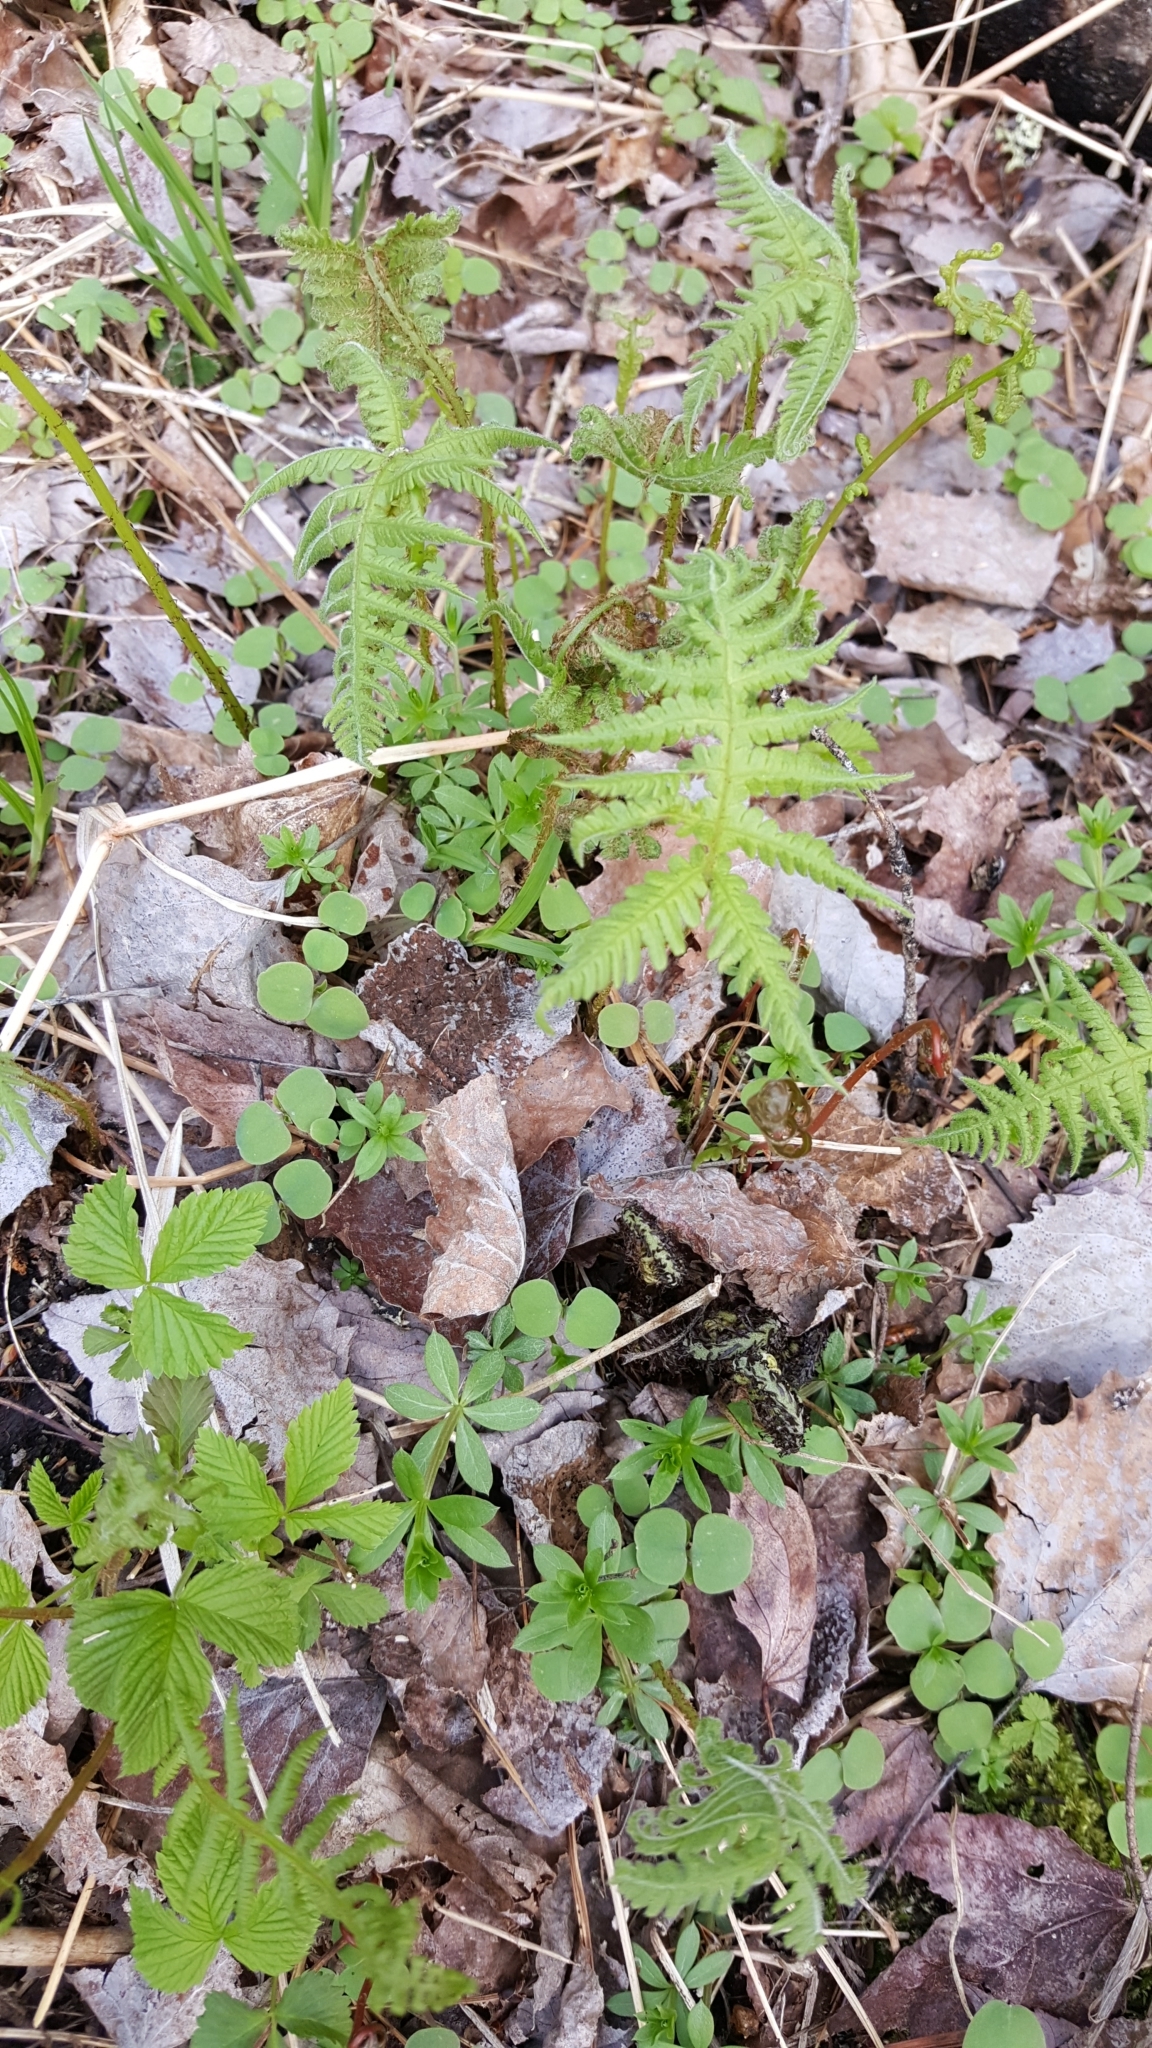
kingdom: Plantae
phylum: Tracheophyta
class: Polypodiopsida
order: Polypodiales
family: Thelypteridaceae
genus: Phegopteris
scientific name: Phegopteris connectilis
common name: Beech fern
